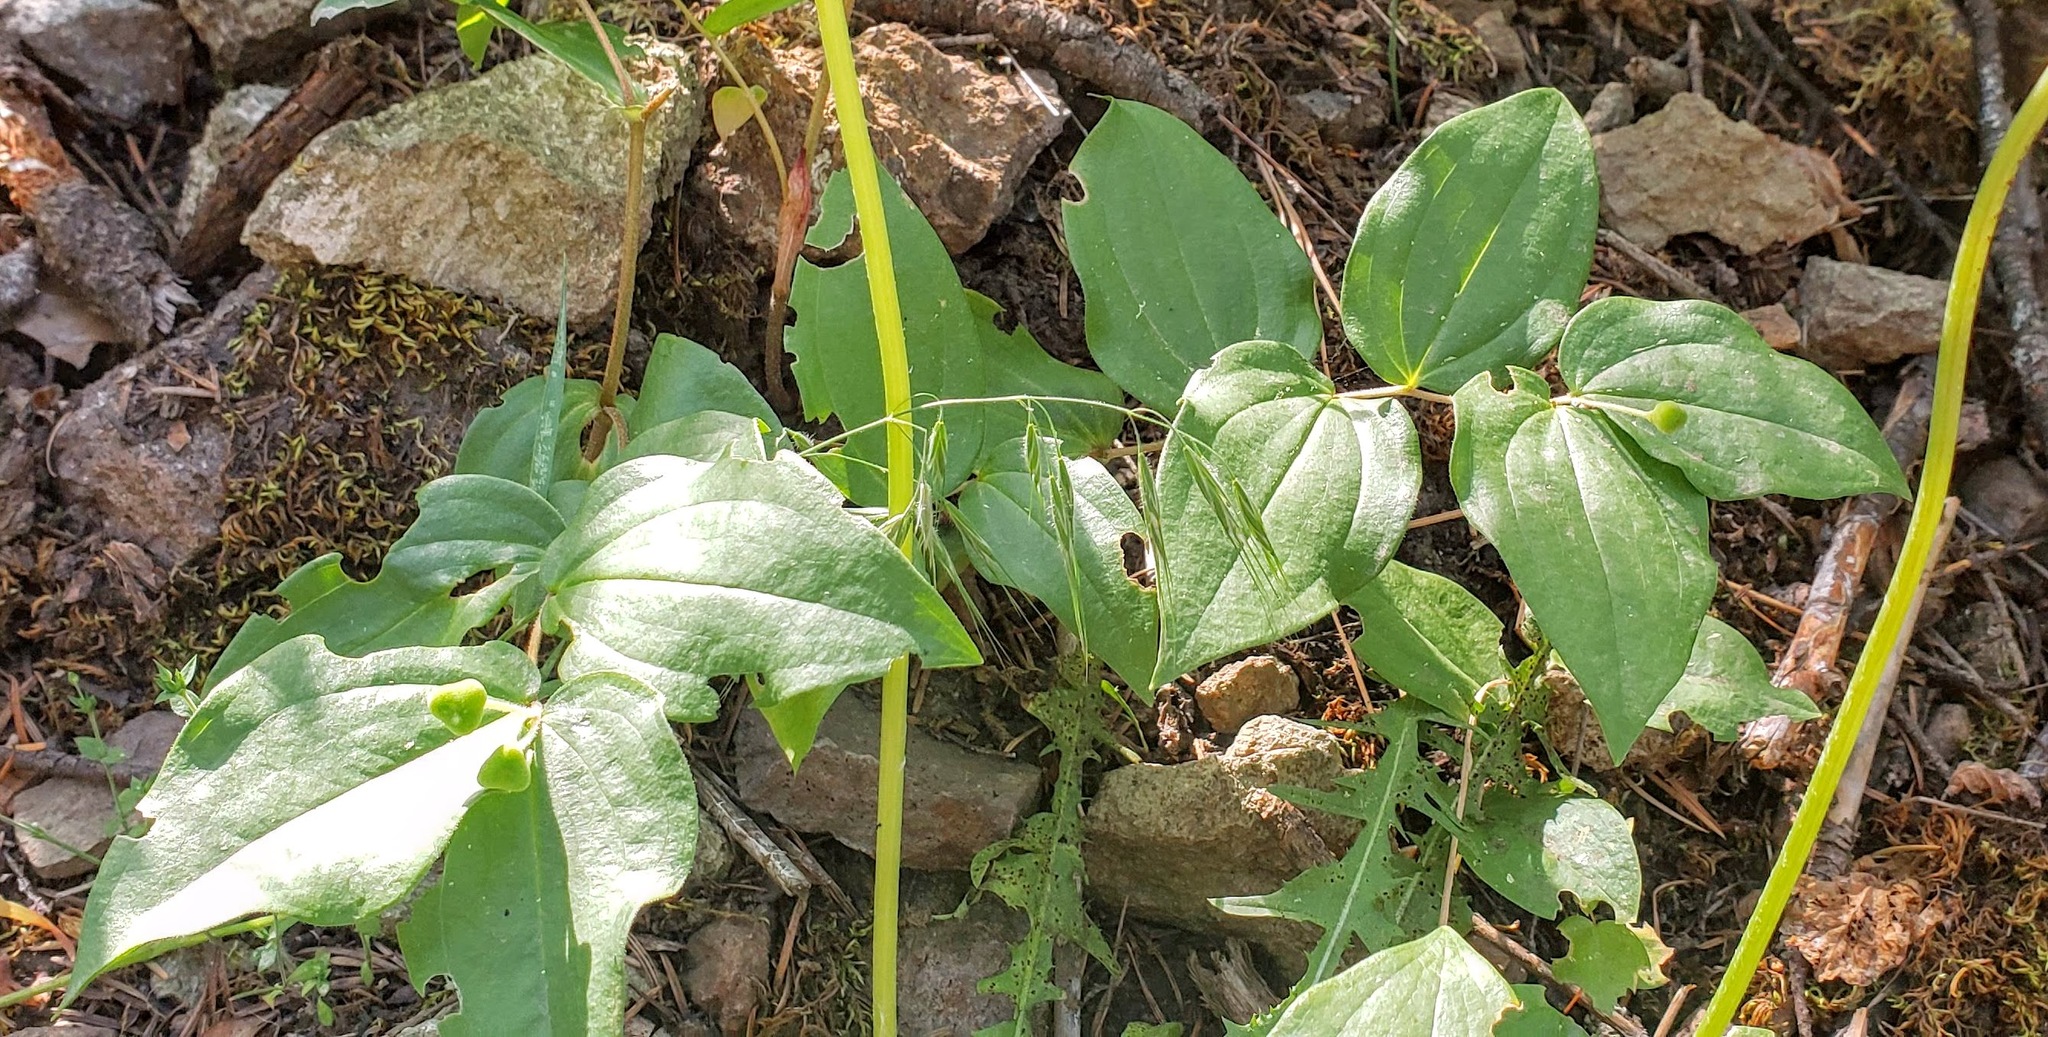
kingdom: Plantae
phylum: Tracheophyta
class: Liliopsida
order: Liliales
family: Liliaceae
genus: Prosartes
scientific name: Prosartes trachycarpa
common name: Rough-fruit fairy-bells
